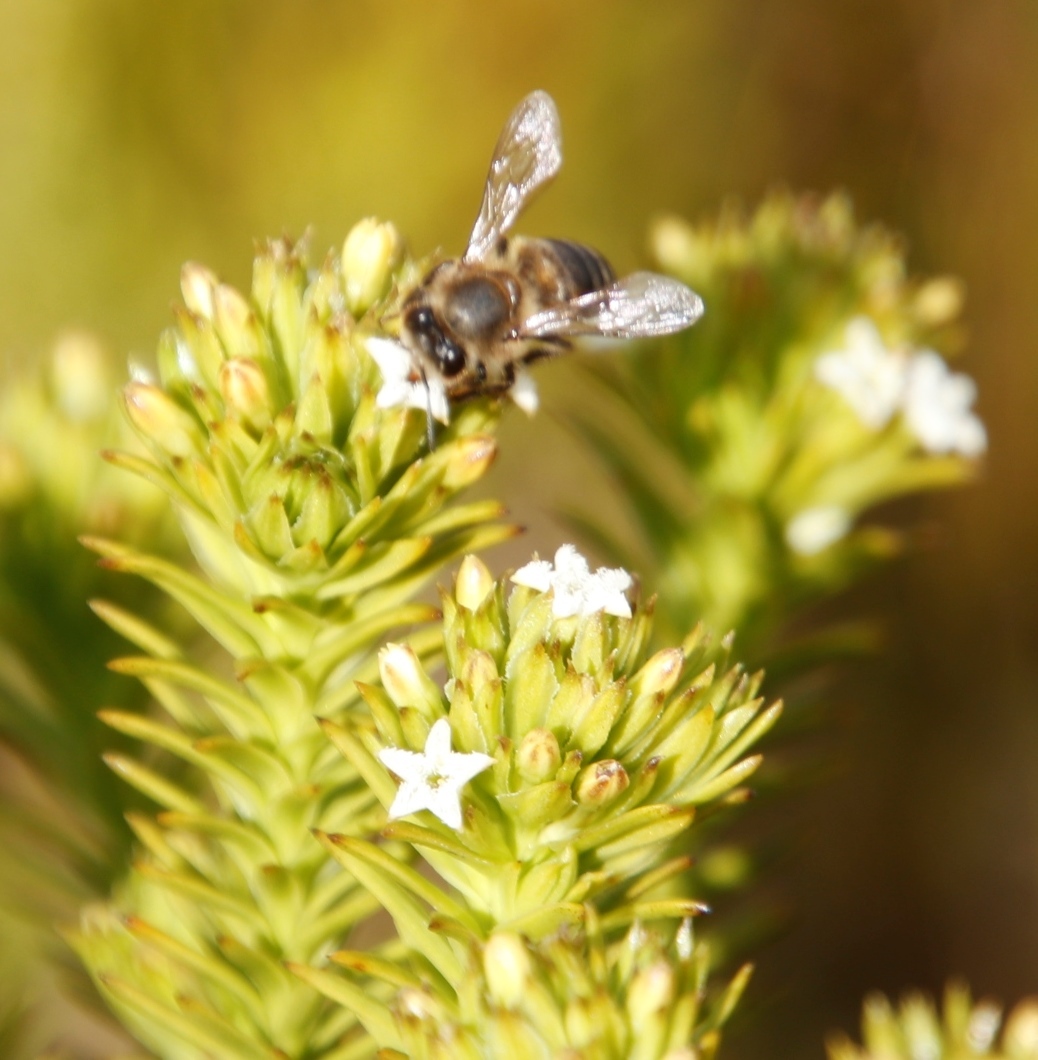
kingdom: Animalia
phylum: Arthropoda
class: Insecta
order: Hymenoptera
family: Apidae
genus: Apis
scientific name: Apis mellifera
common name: Honey bee
